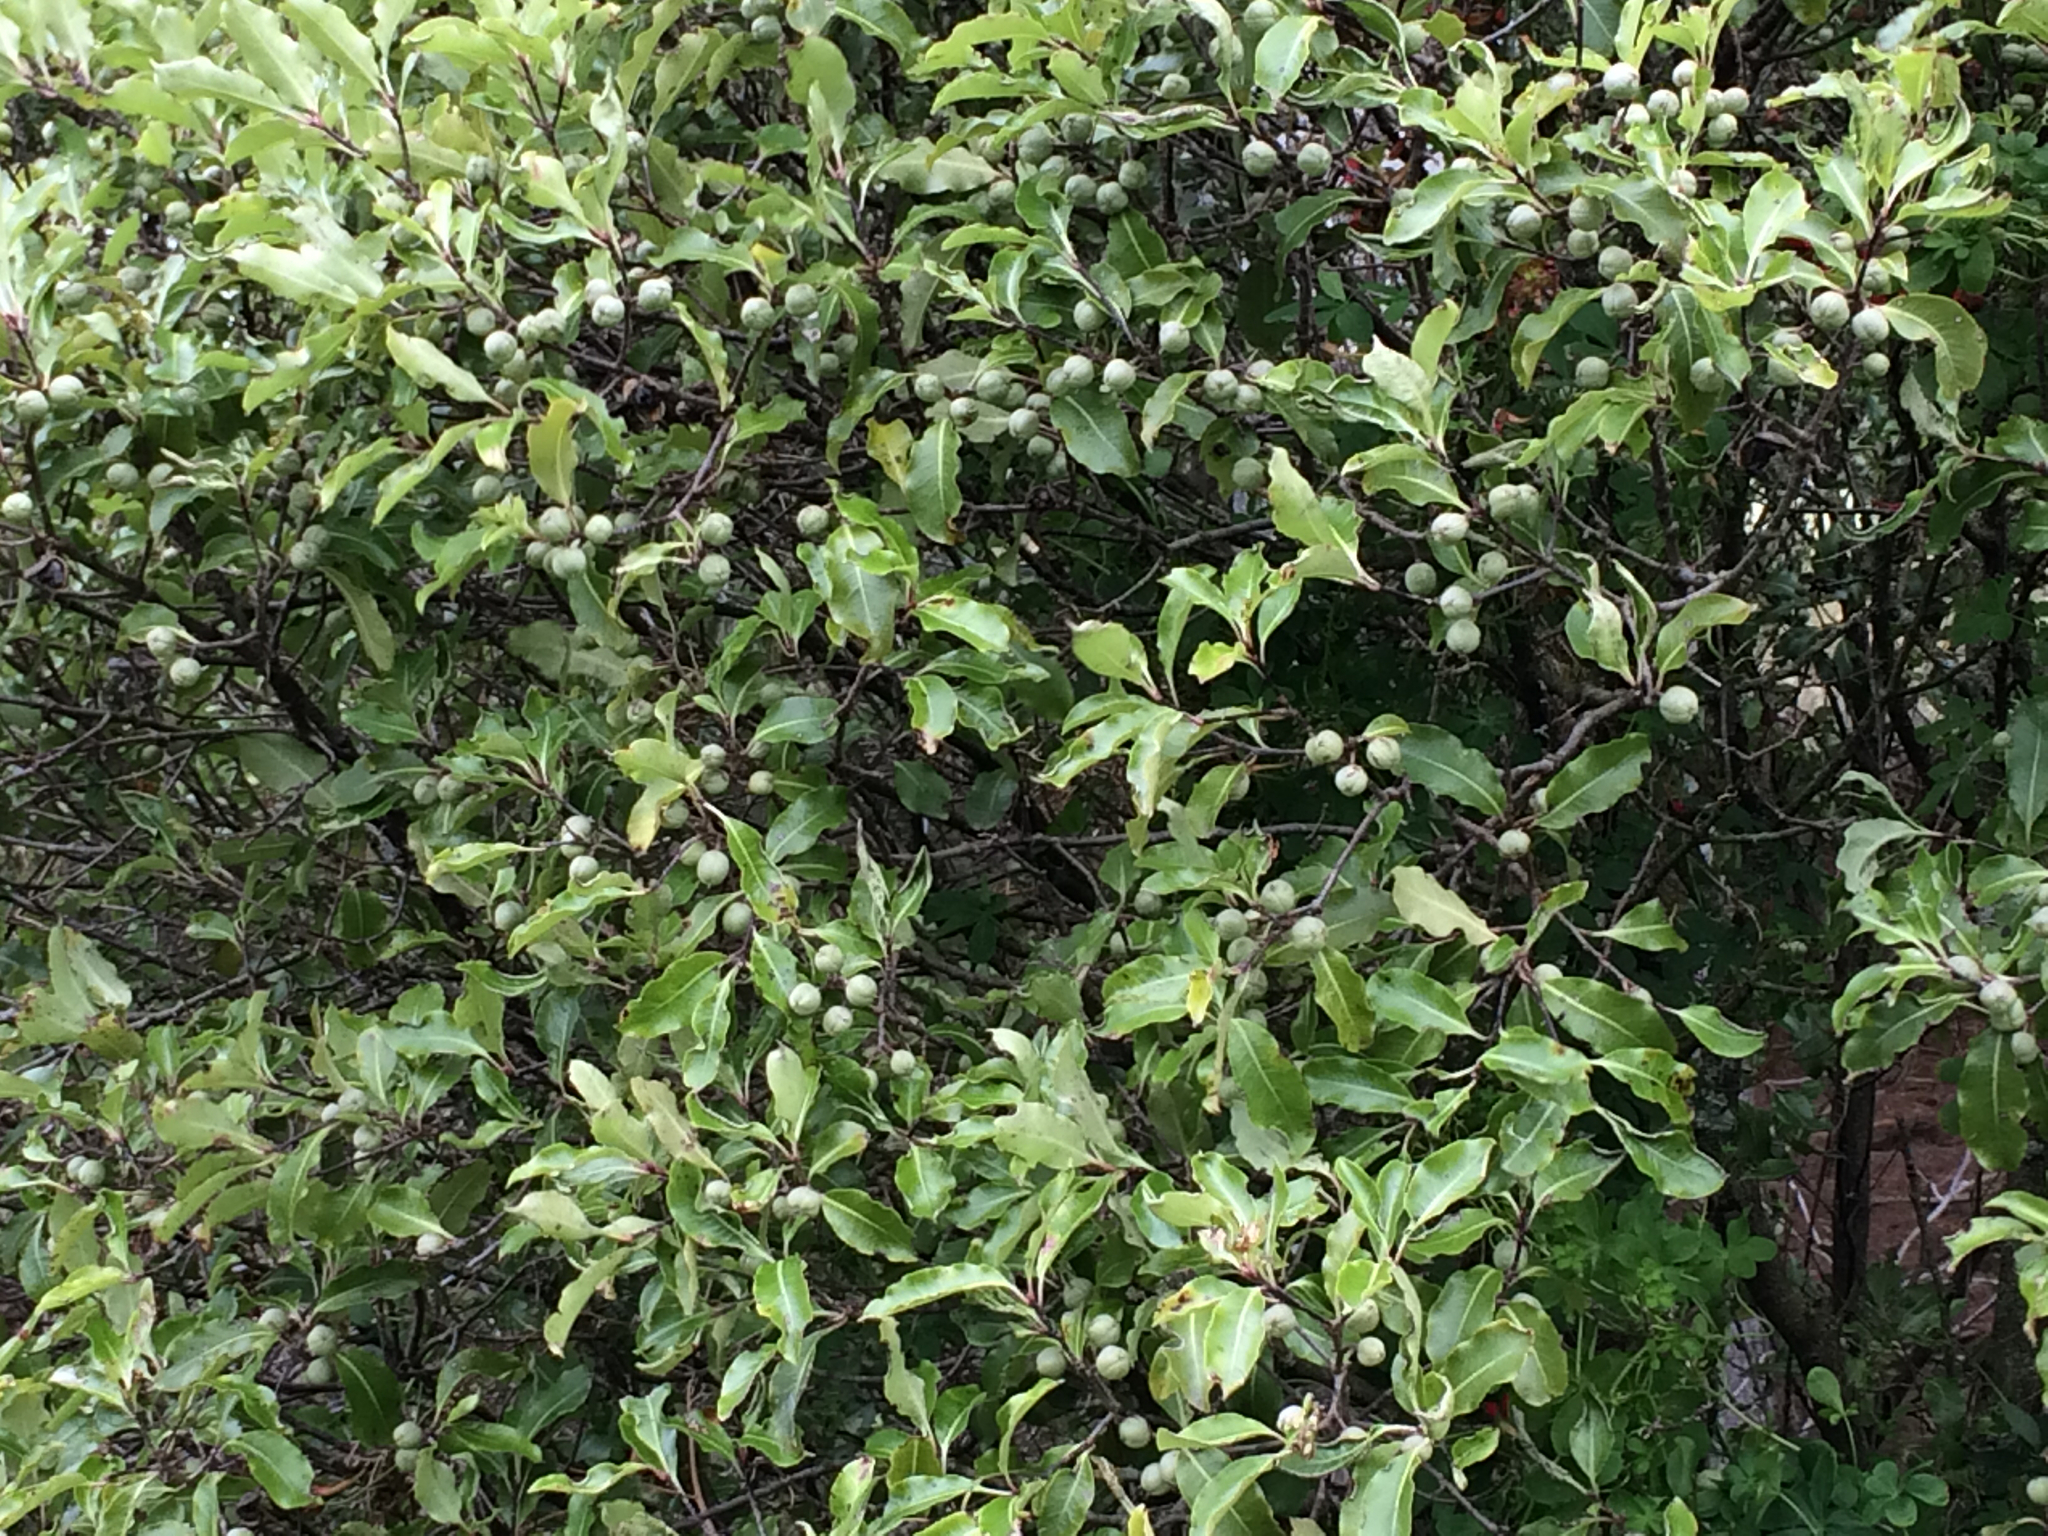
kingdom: Plantae
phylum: Tracheophyta
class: Magnoliopsida
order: Apiales
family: Pittosporaceae
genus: Pittosporum
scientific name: Pittosporum tenuifolium
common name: Kohuhu
